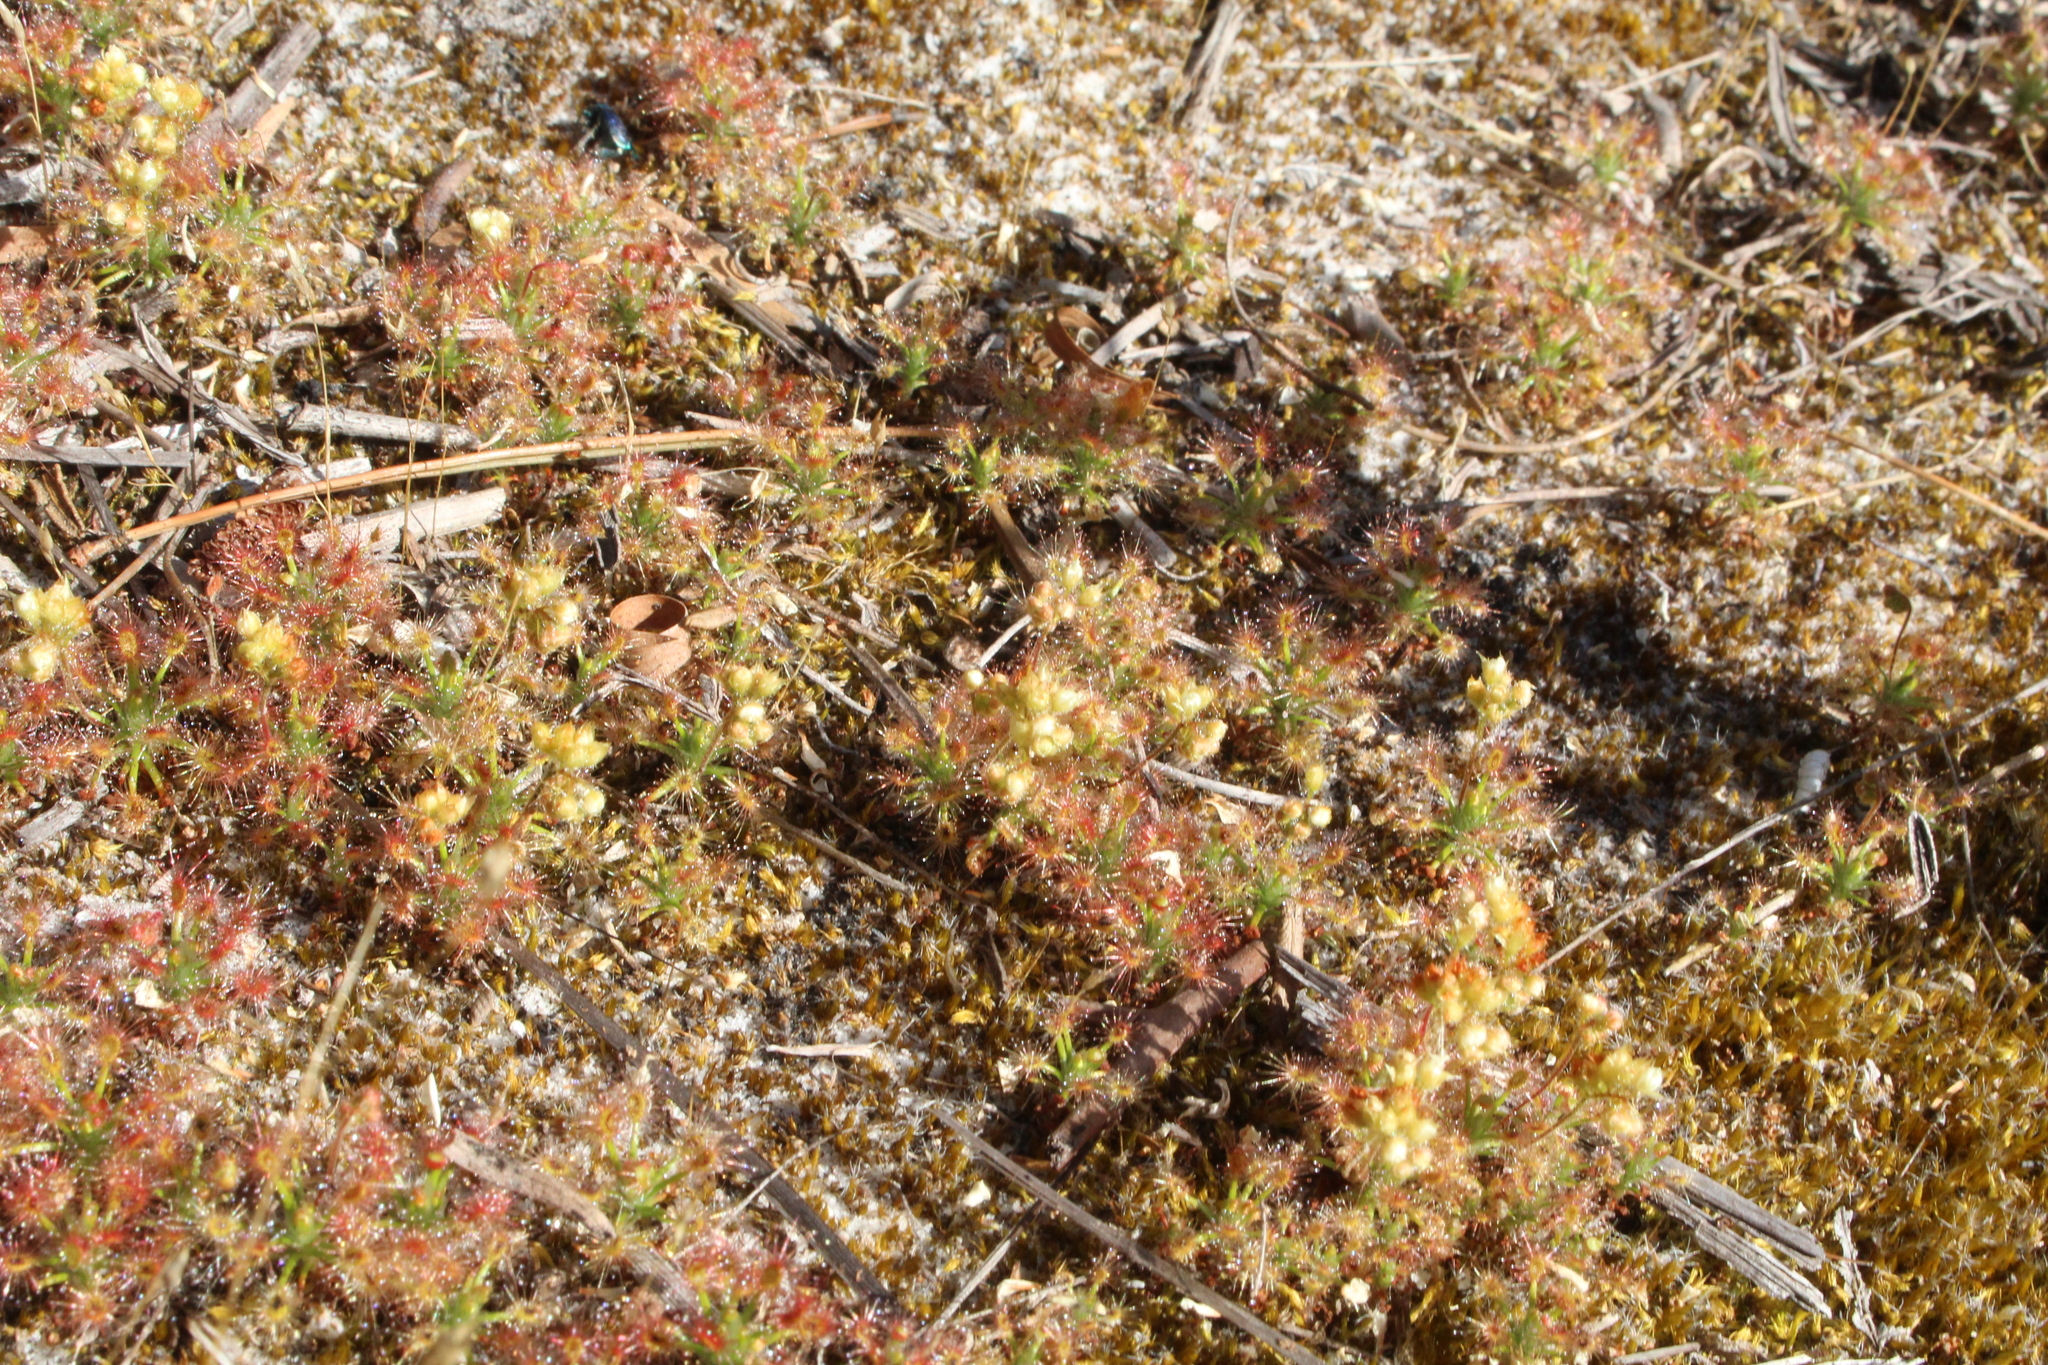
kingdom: Plantae
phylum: Tracheophyta
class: Magnoliopsida
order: Caryophyllales
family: Droseraceae
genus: Drosera
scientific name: Drosera paleacea
